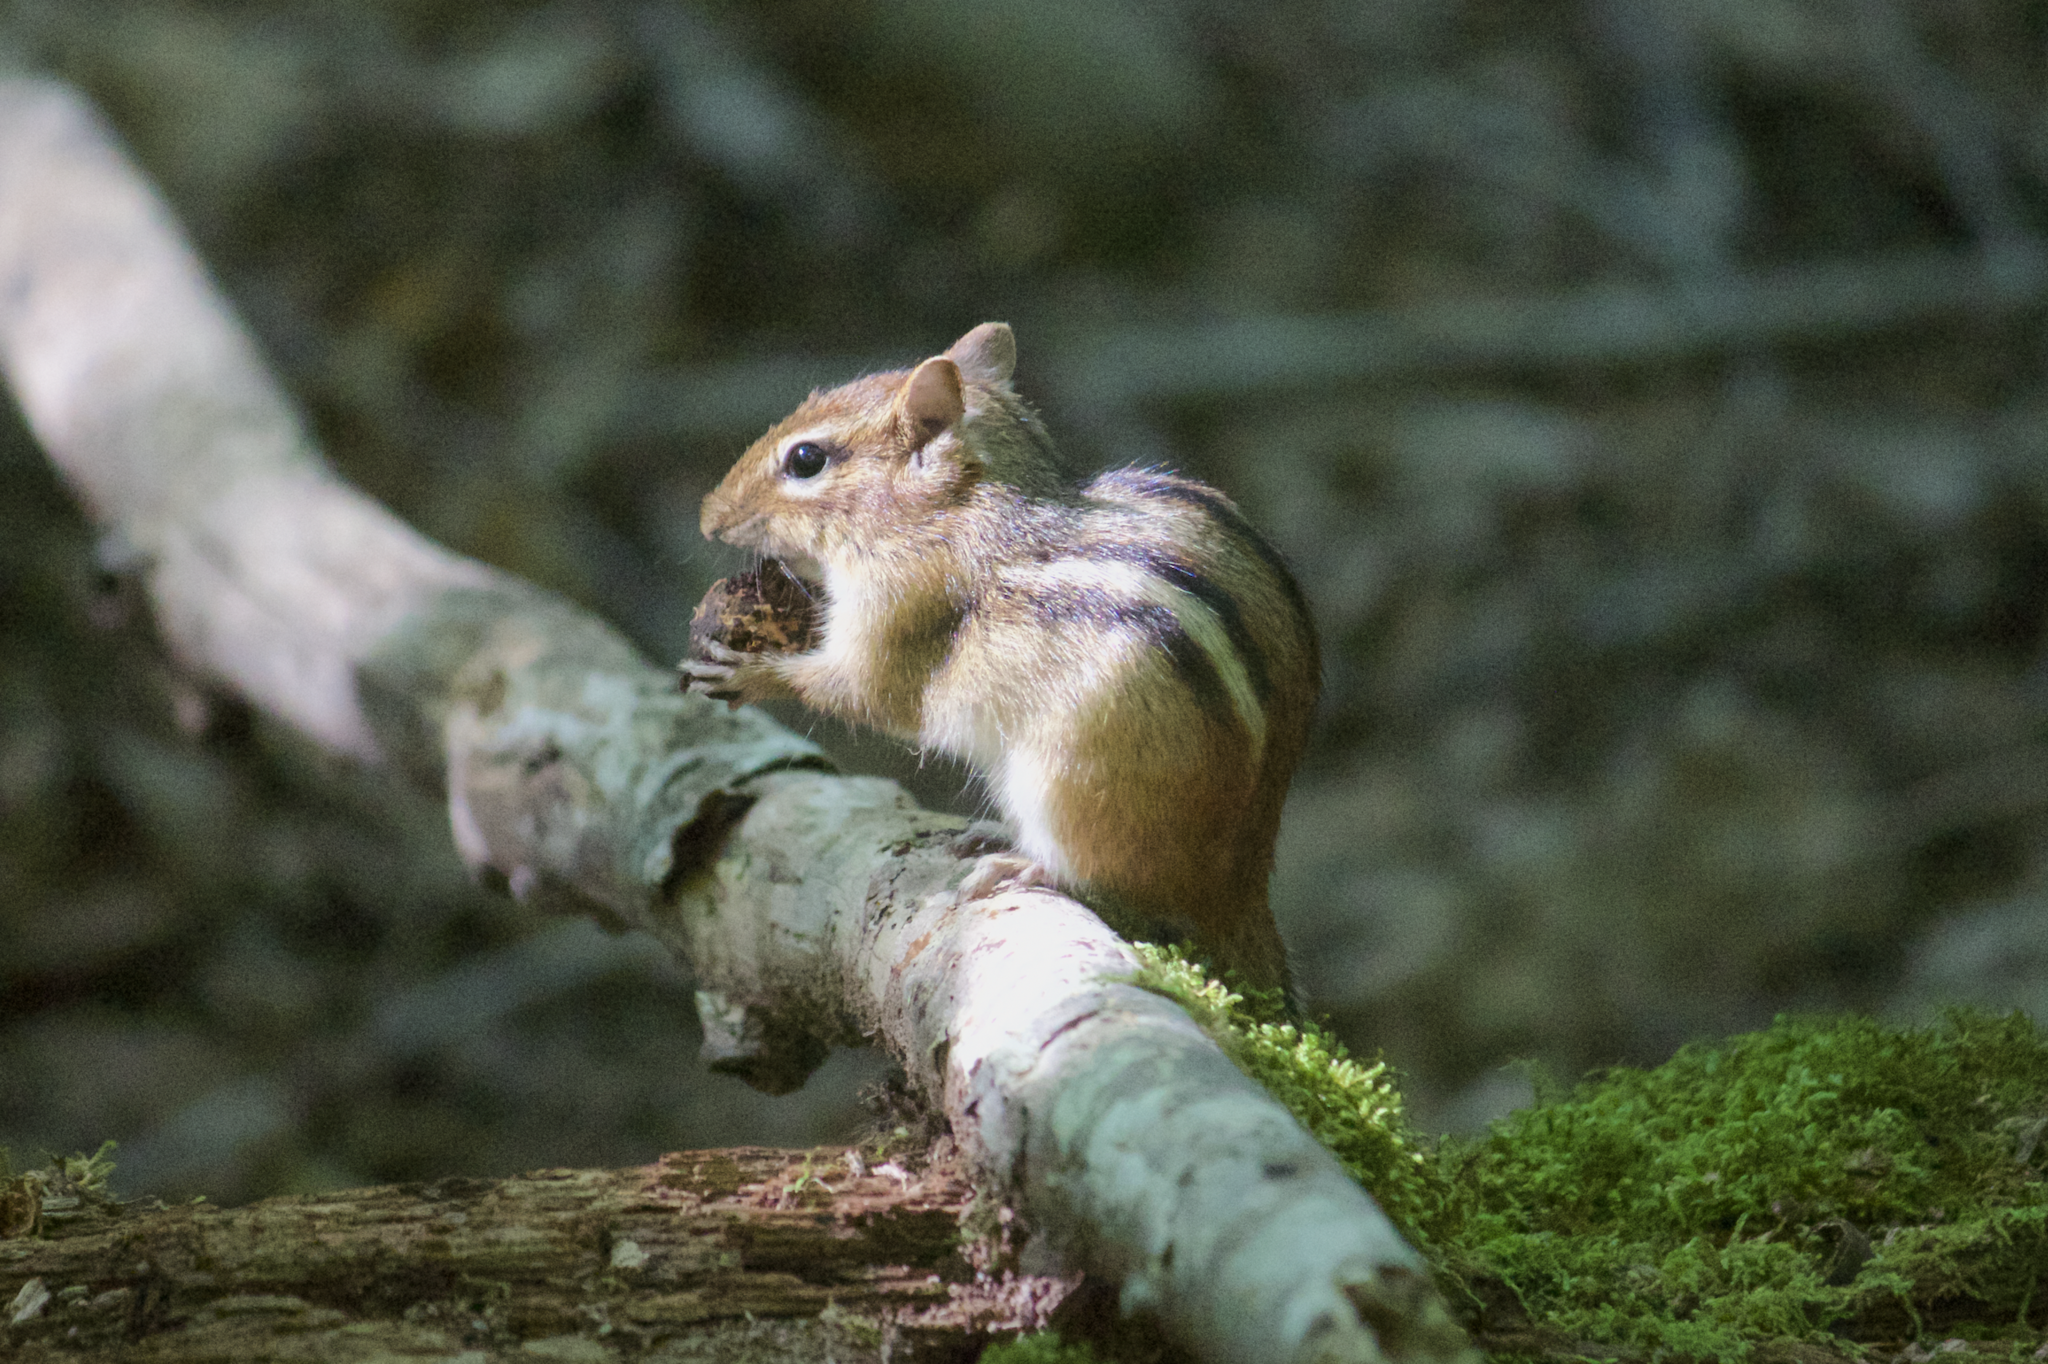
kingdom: Animalia
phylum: Chordata
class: Mammalia
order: Rodentia
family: Sciuridae
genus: Tamias
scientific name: Tamias striatus
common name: Eastern chipmunk
